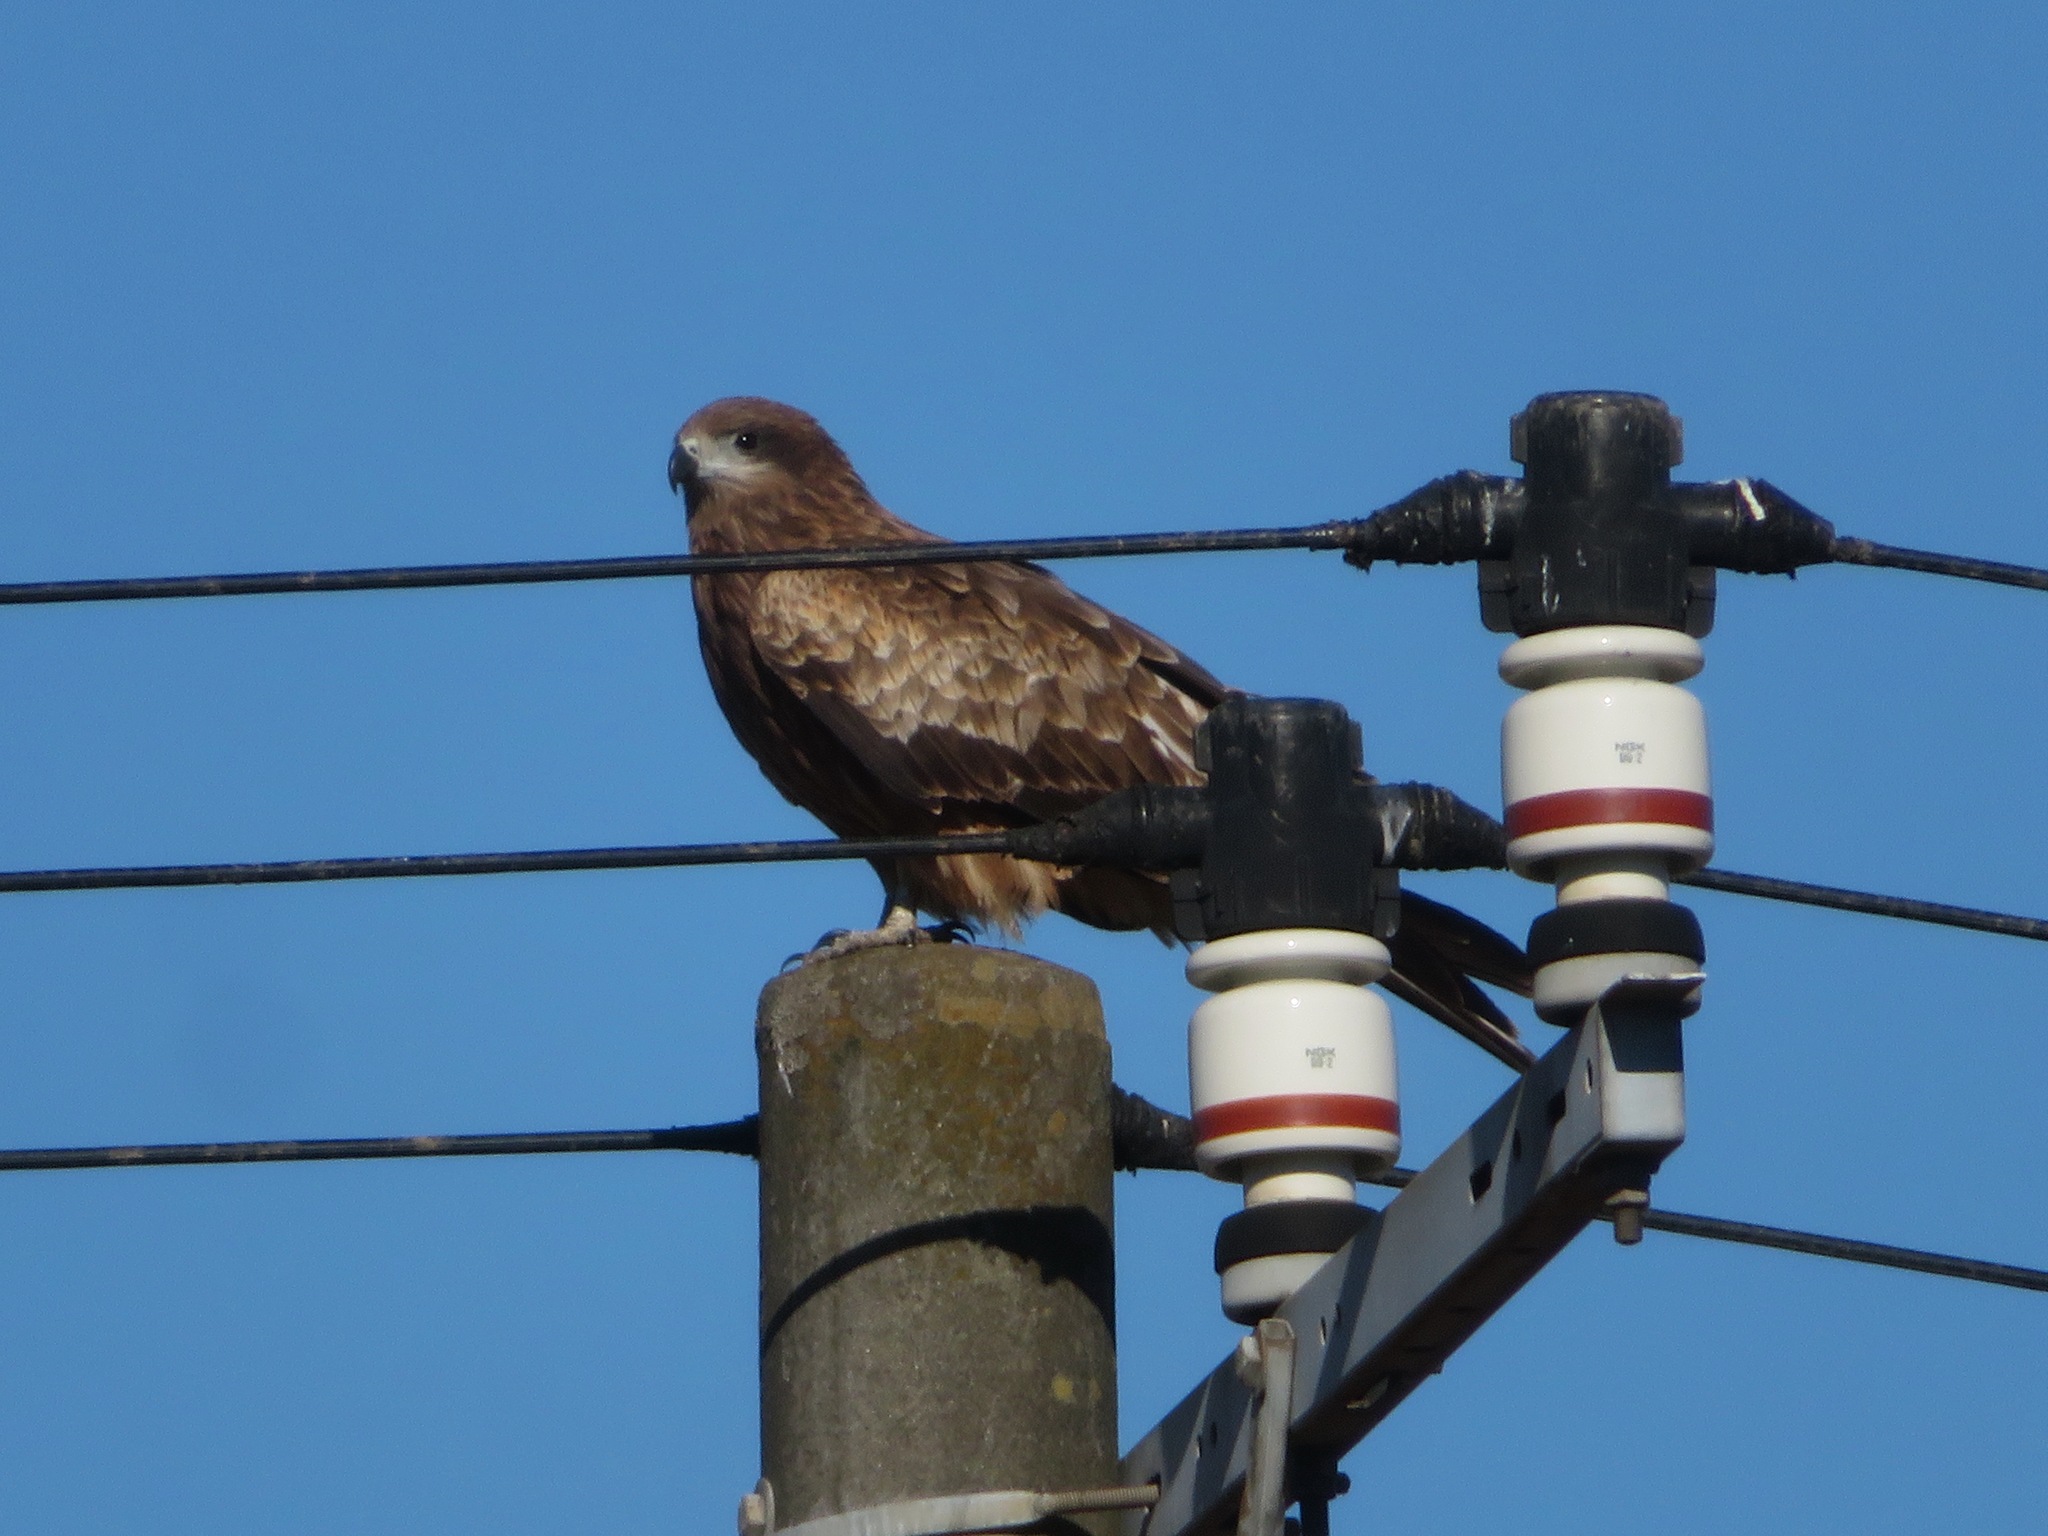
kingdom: Animalia
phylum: Chordata
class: Aves
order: Accipitriformes
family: Accipitridae
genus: Milvus
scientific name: Milvus migrans
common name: Black kite
